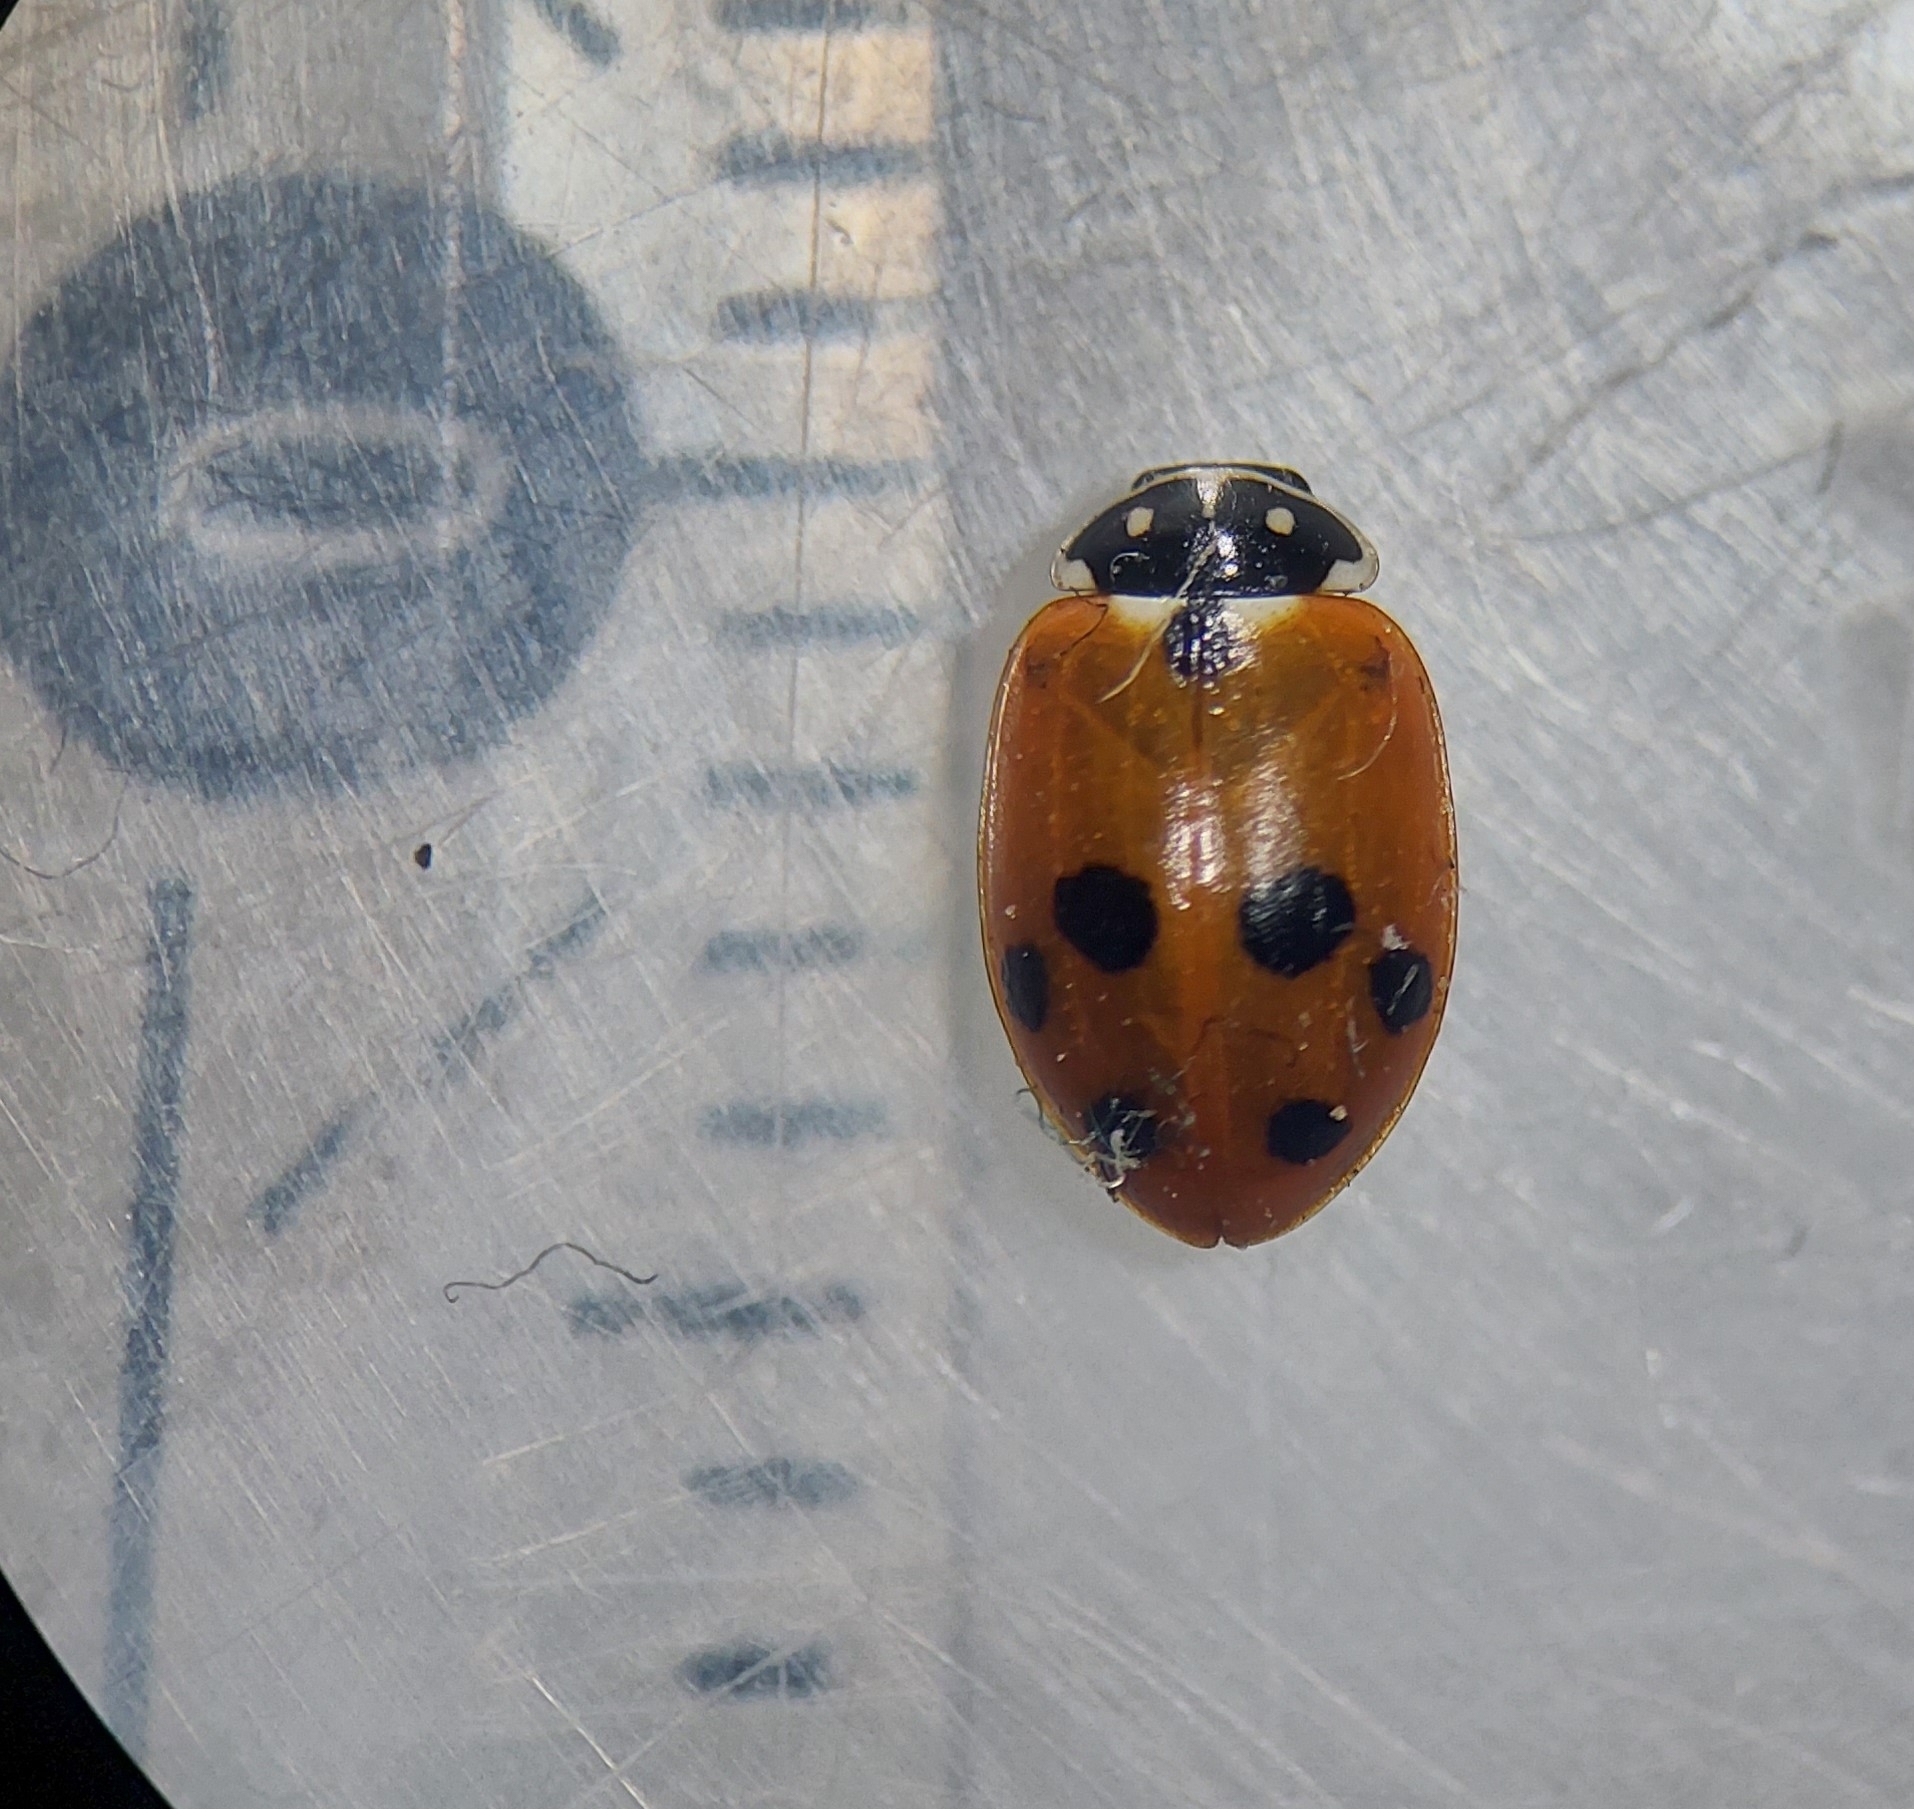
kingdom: Animalia
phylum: Arthropoda
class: Insecta
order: Coleoptera
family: Coccinellidae
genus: Hippodamia
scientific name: Hippodamia variegata
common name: Ladybird beetle
